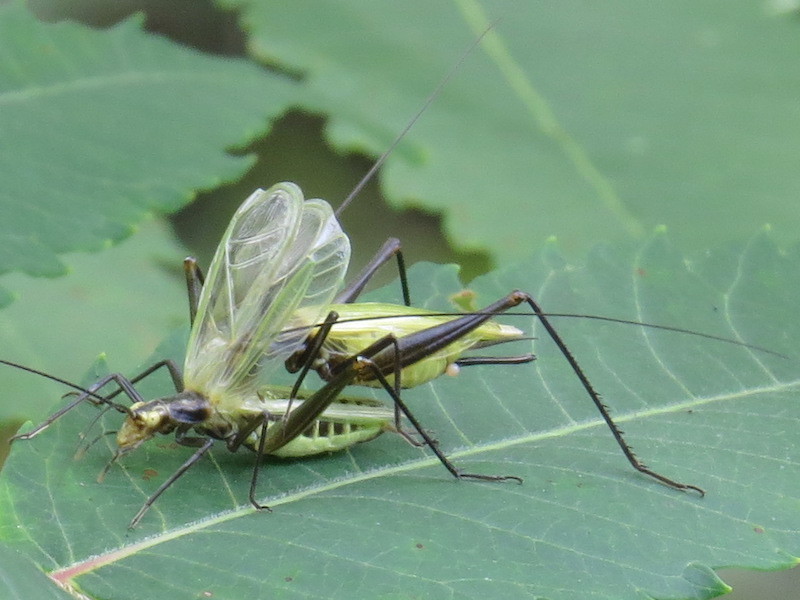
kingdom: Animalia
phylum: Arthropoda
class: Insecta
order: Orthoptera
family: Gryllidae
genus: Oecanthus
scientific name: Oecanthus nigricornis
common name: Black-horned tree cricket
